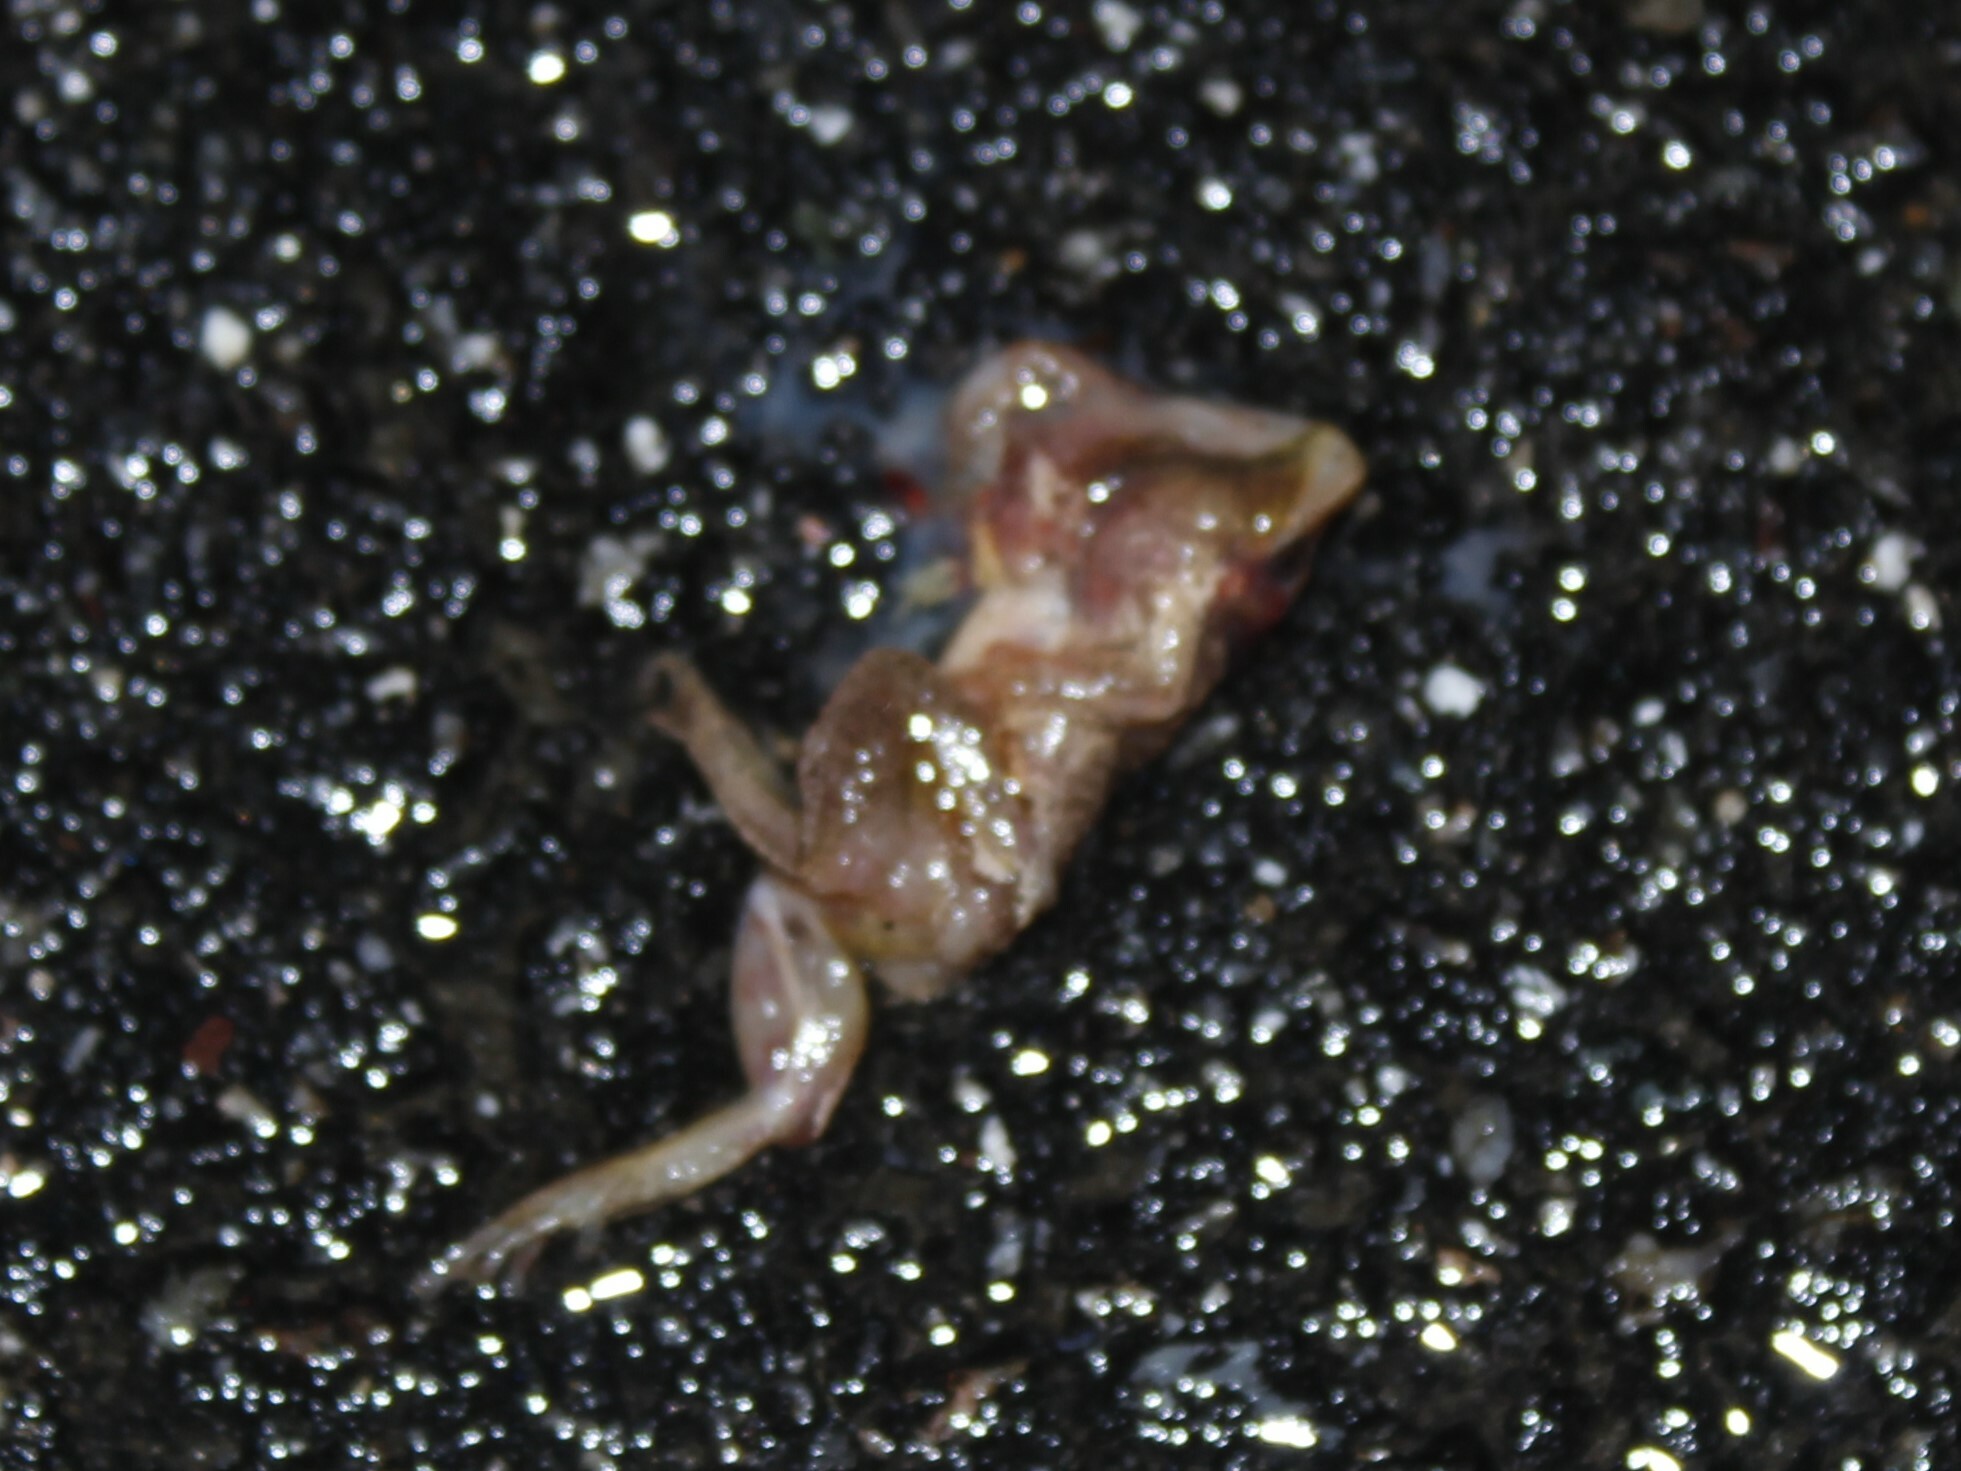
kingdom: Animalia
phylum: Chordata
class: Amphibia
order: Anura
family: Hylidae
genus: Pseudacris
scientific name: Pseudacris crucifer
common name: Spring peeper
